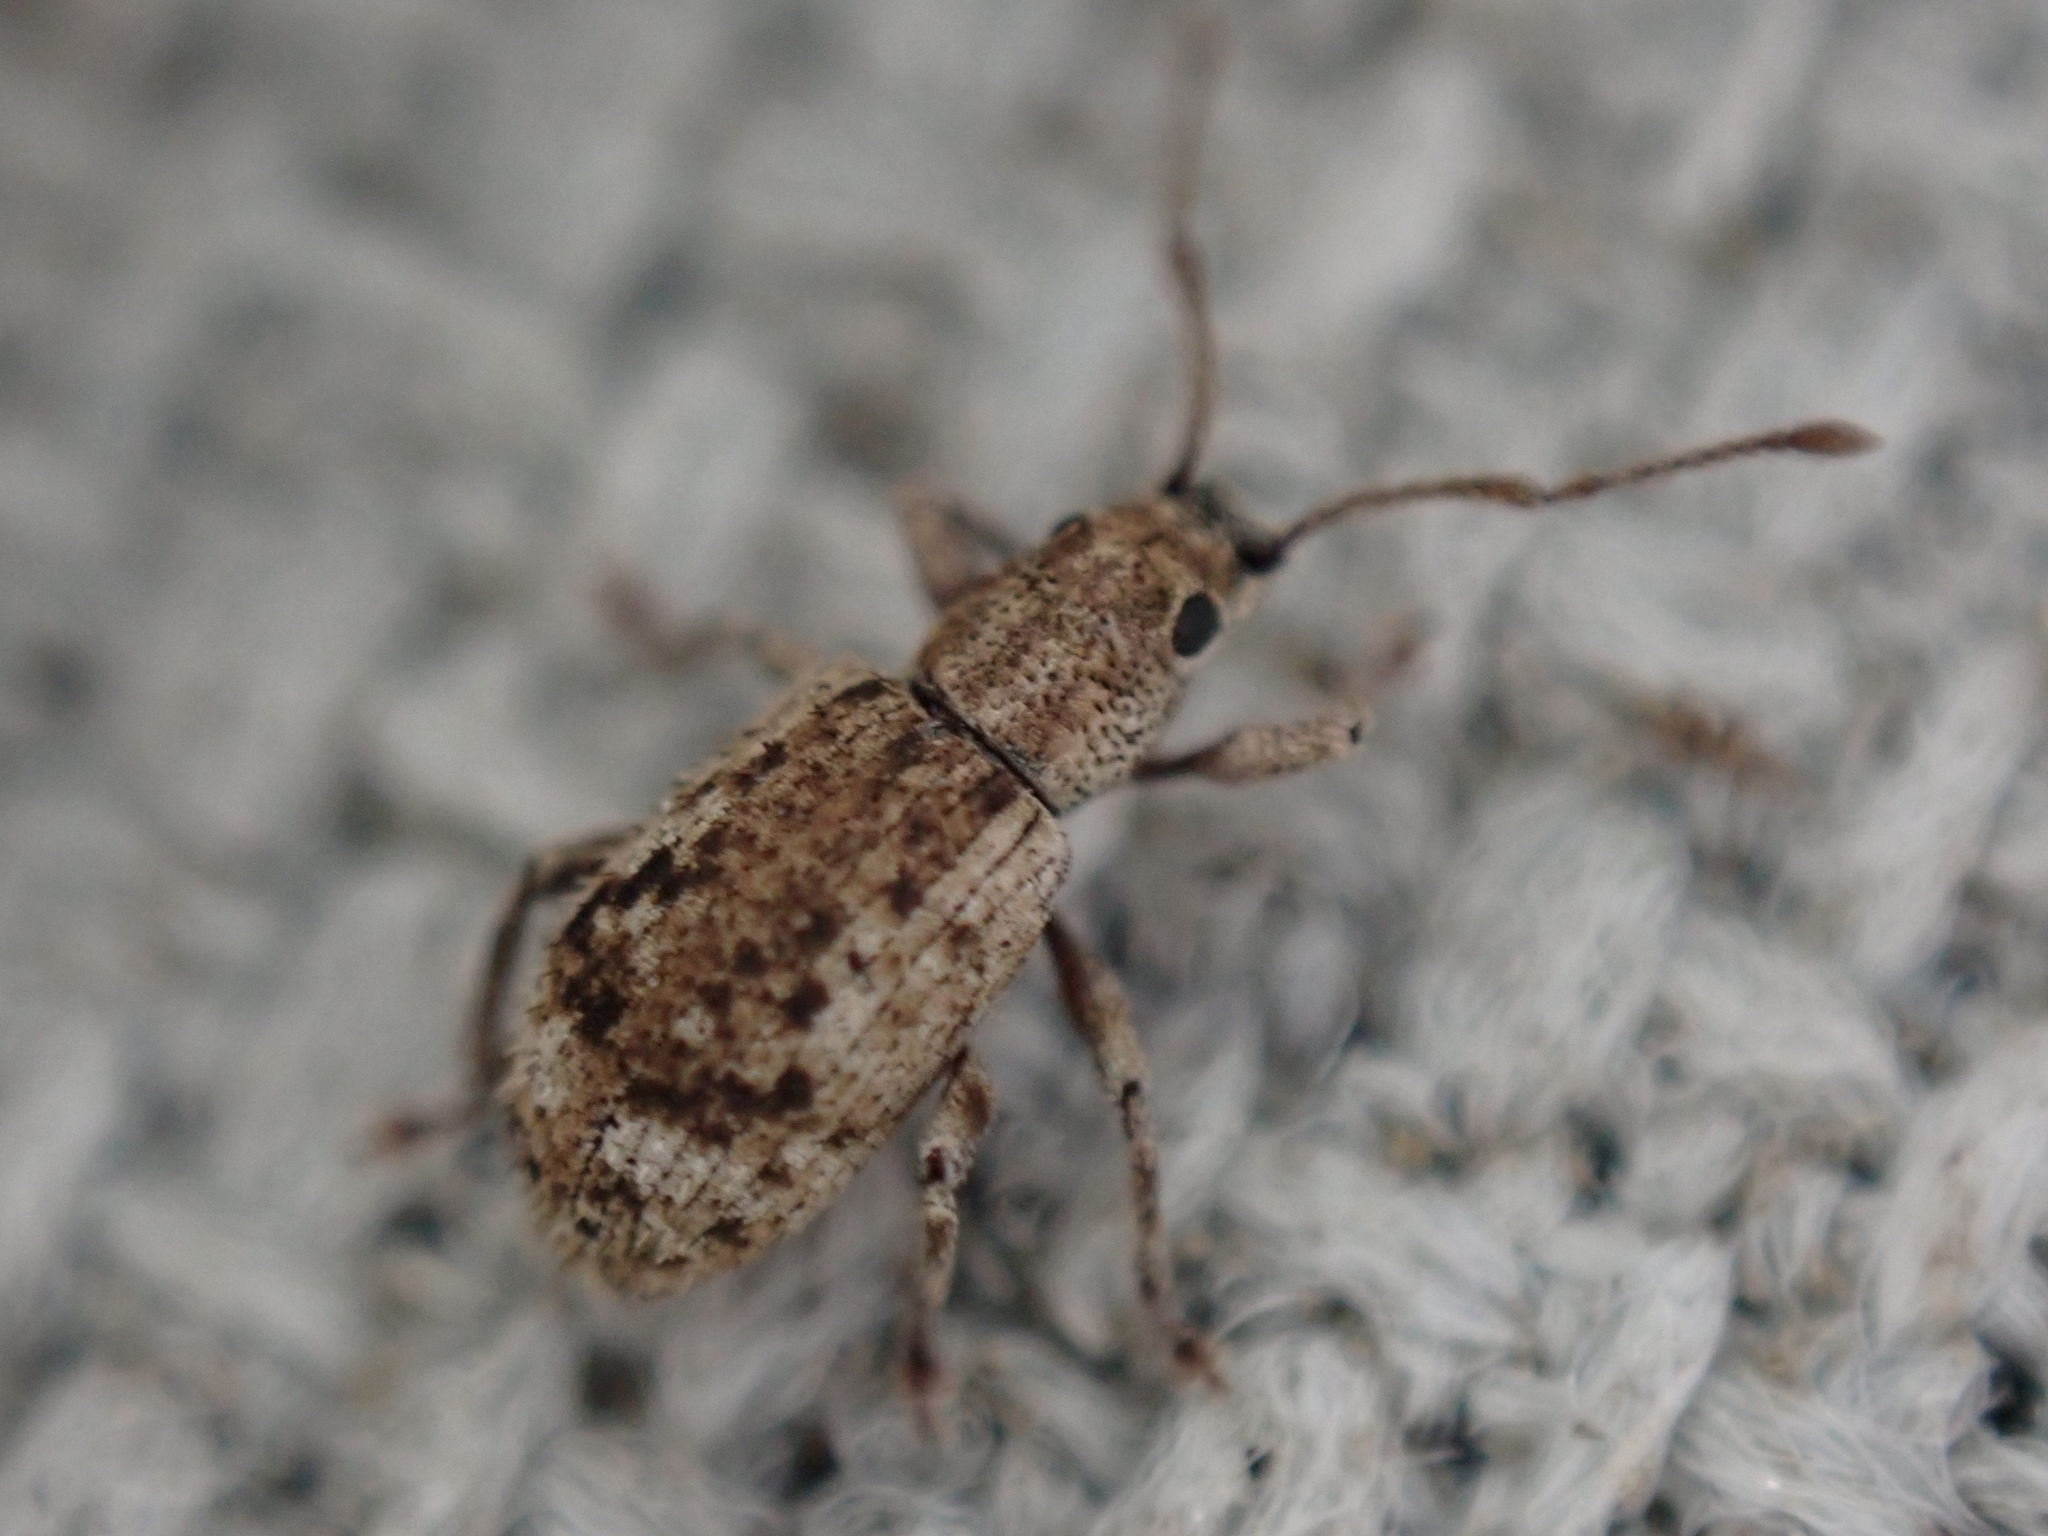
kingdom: Animalia
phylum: Arthropoda
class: Insecta
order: Coleoptera
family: Curculionidae
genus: Pseudoedophrys
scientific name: Pseudoedophrys hilleri
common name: Weevil
